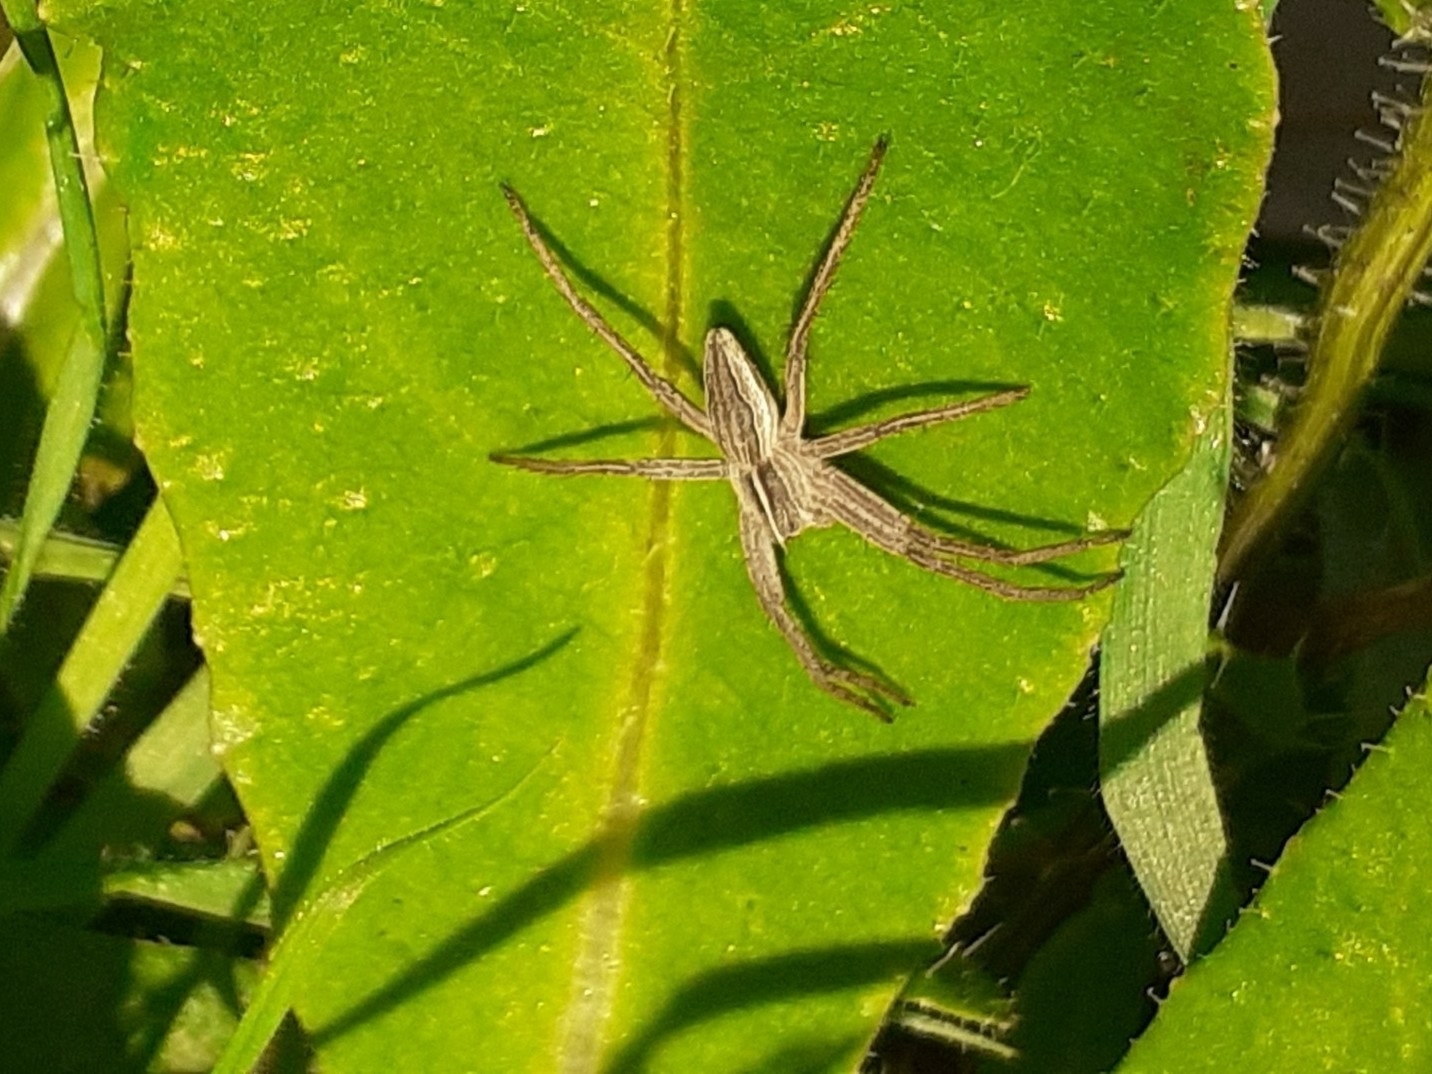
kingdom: Animalia
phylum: Arthropoda
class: Arachnida
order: Araneae
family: Pisauridae
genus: Pisaura
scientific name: Pisaura mirabilis
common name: Tent spider
